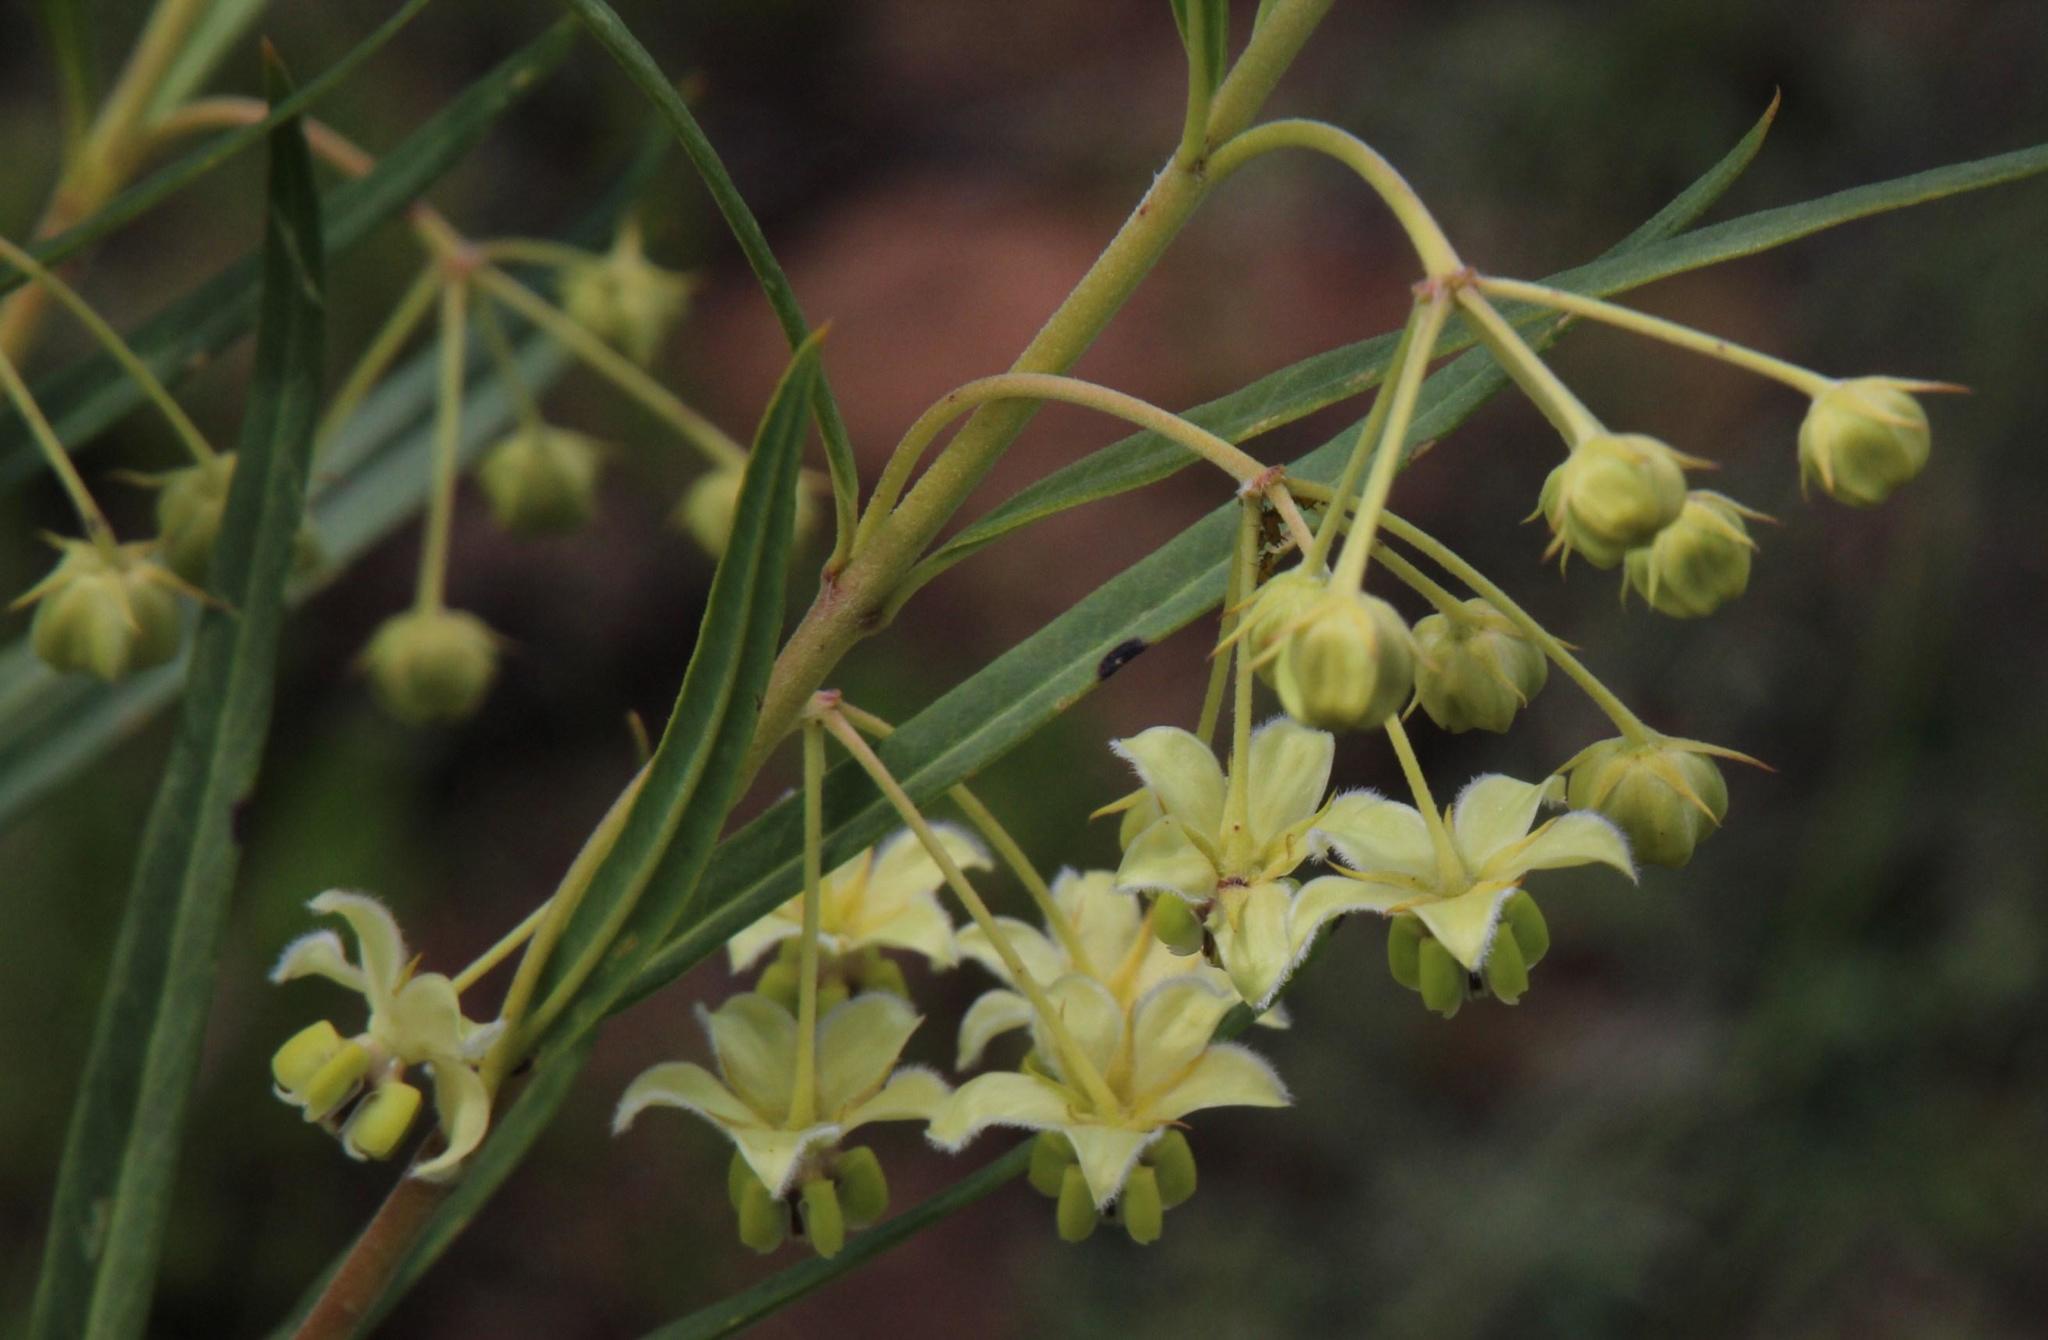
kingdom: Plantae
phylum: Tracheophyta
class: Magnoliopsida
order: Gentianales
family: Apocynaceae
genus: Gomphocarpus
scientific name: Gomphocarpus fruticosus
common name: Milkweed
